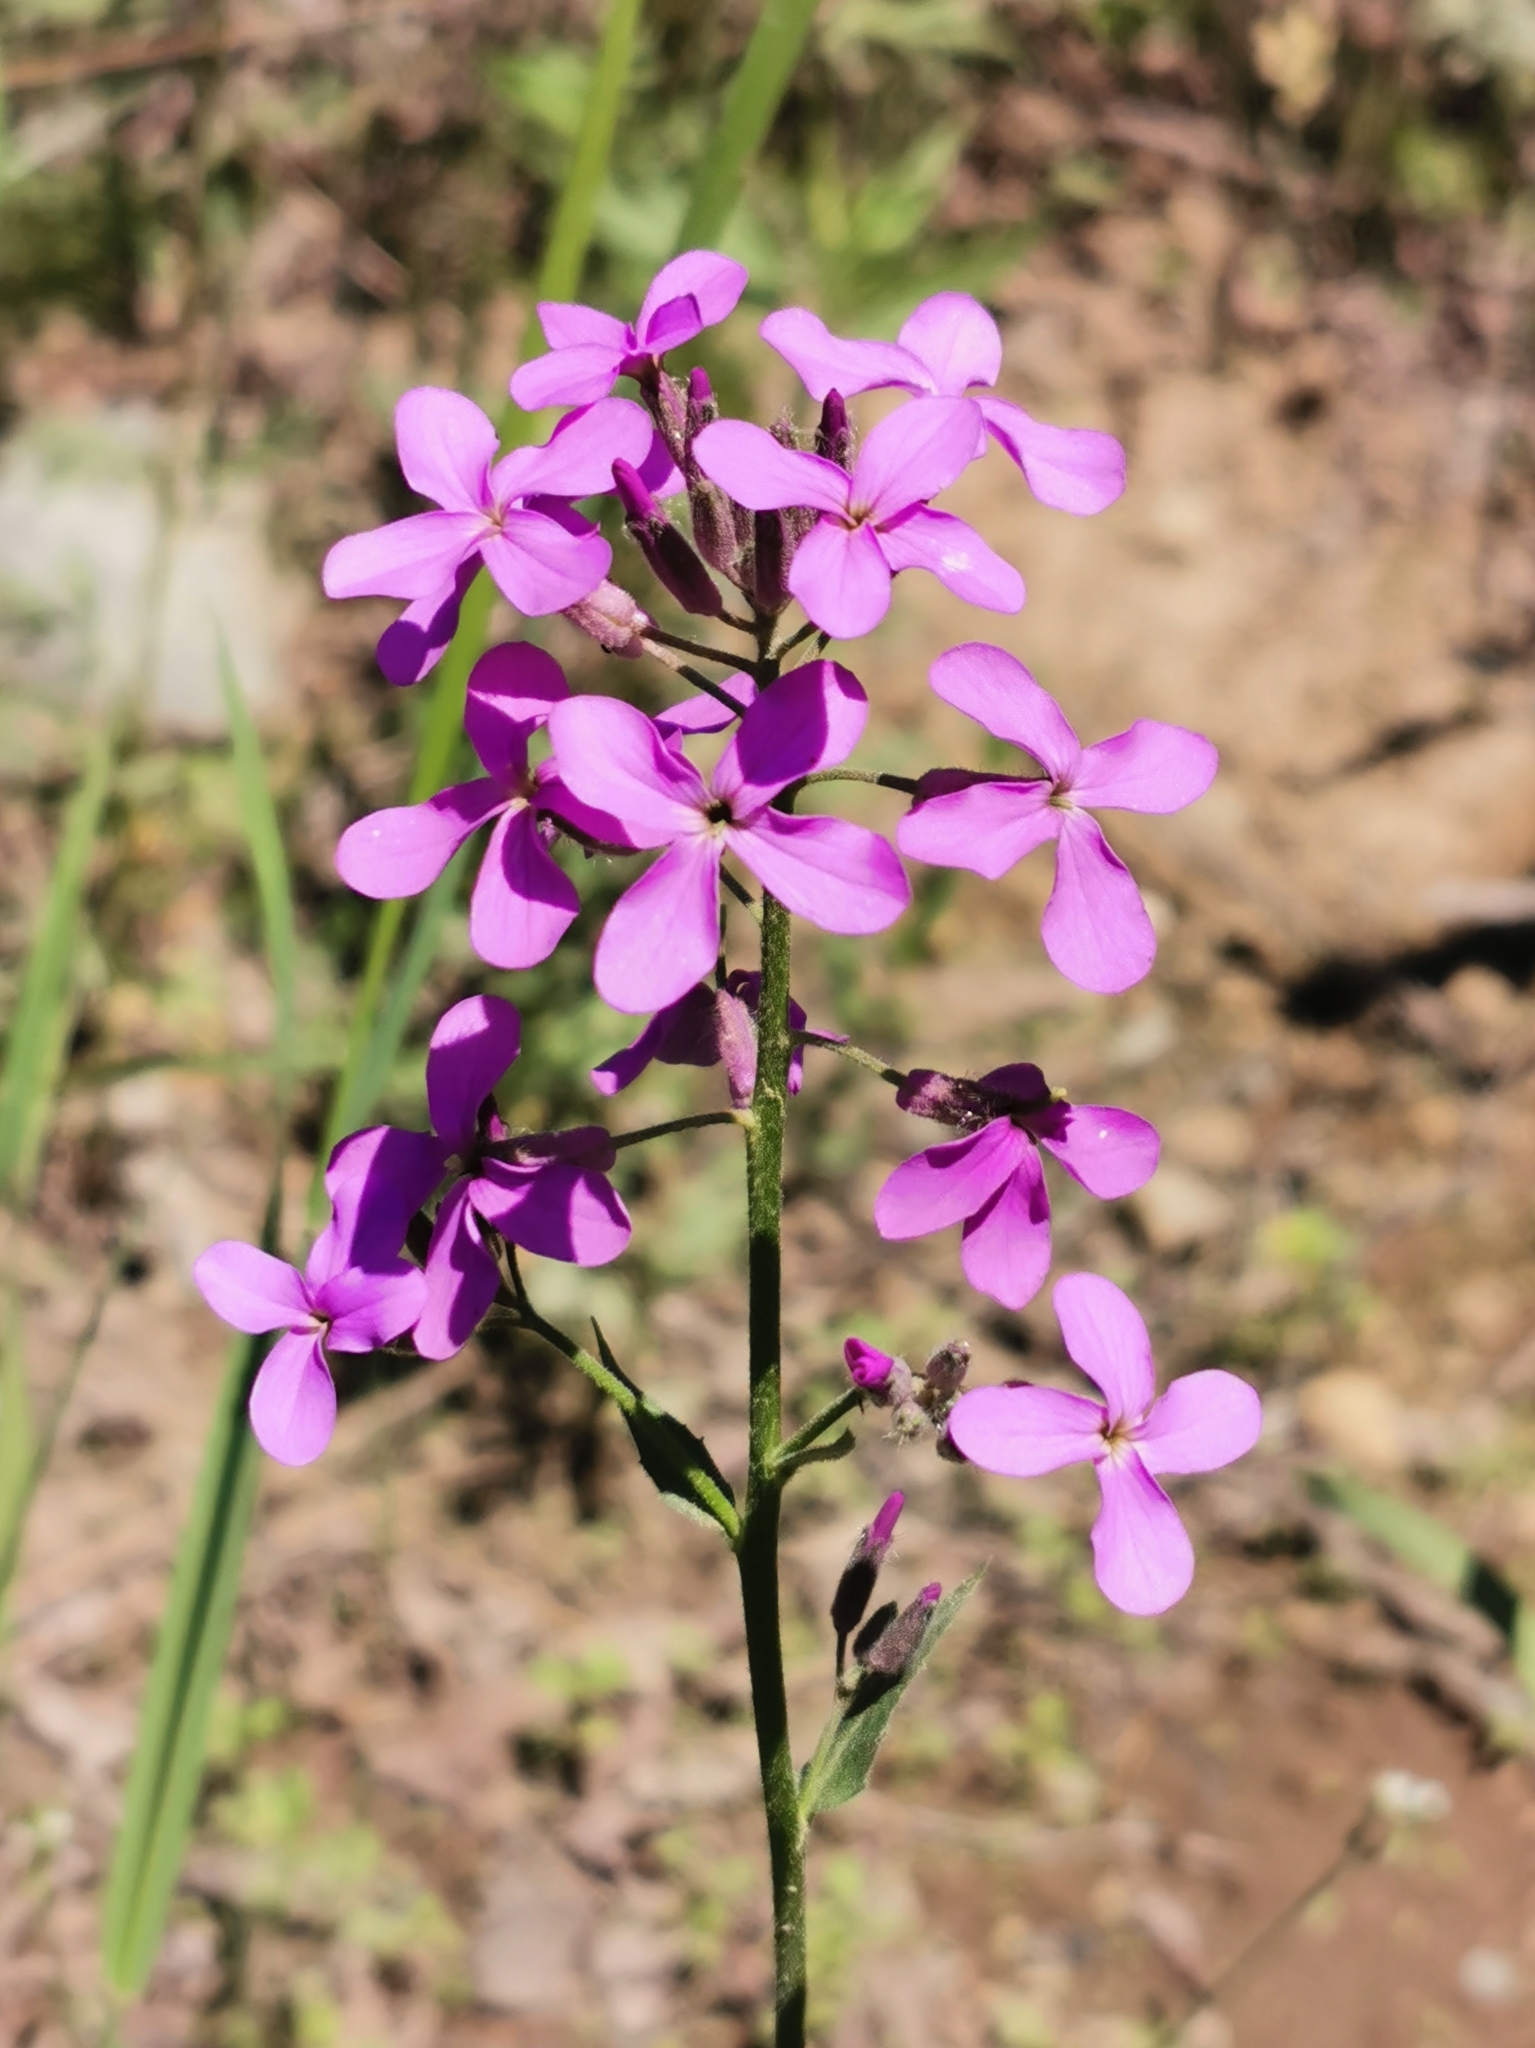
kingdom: Plantae
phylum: Tracheophyta
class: Magnoliopsida
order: Brassicales
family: Brassicaceae
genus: Hesperis
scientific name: Hesperis matronalis
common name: Dame's-violet
